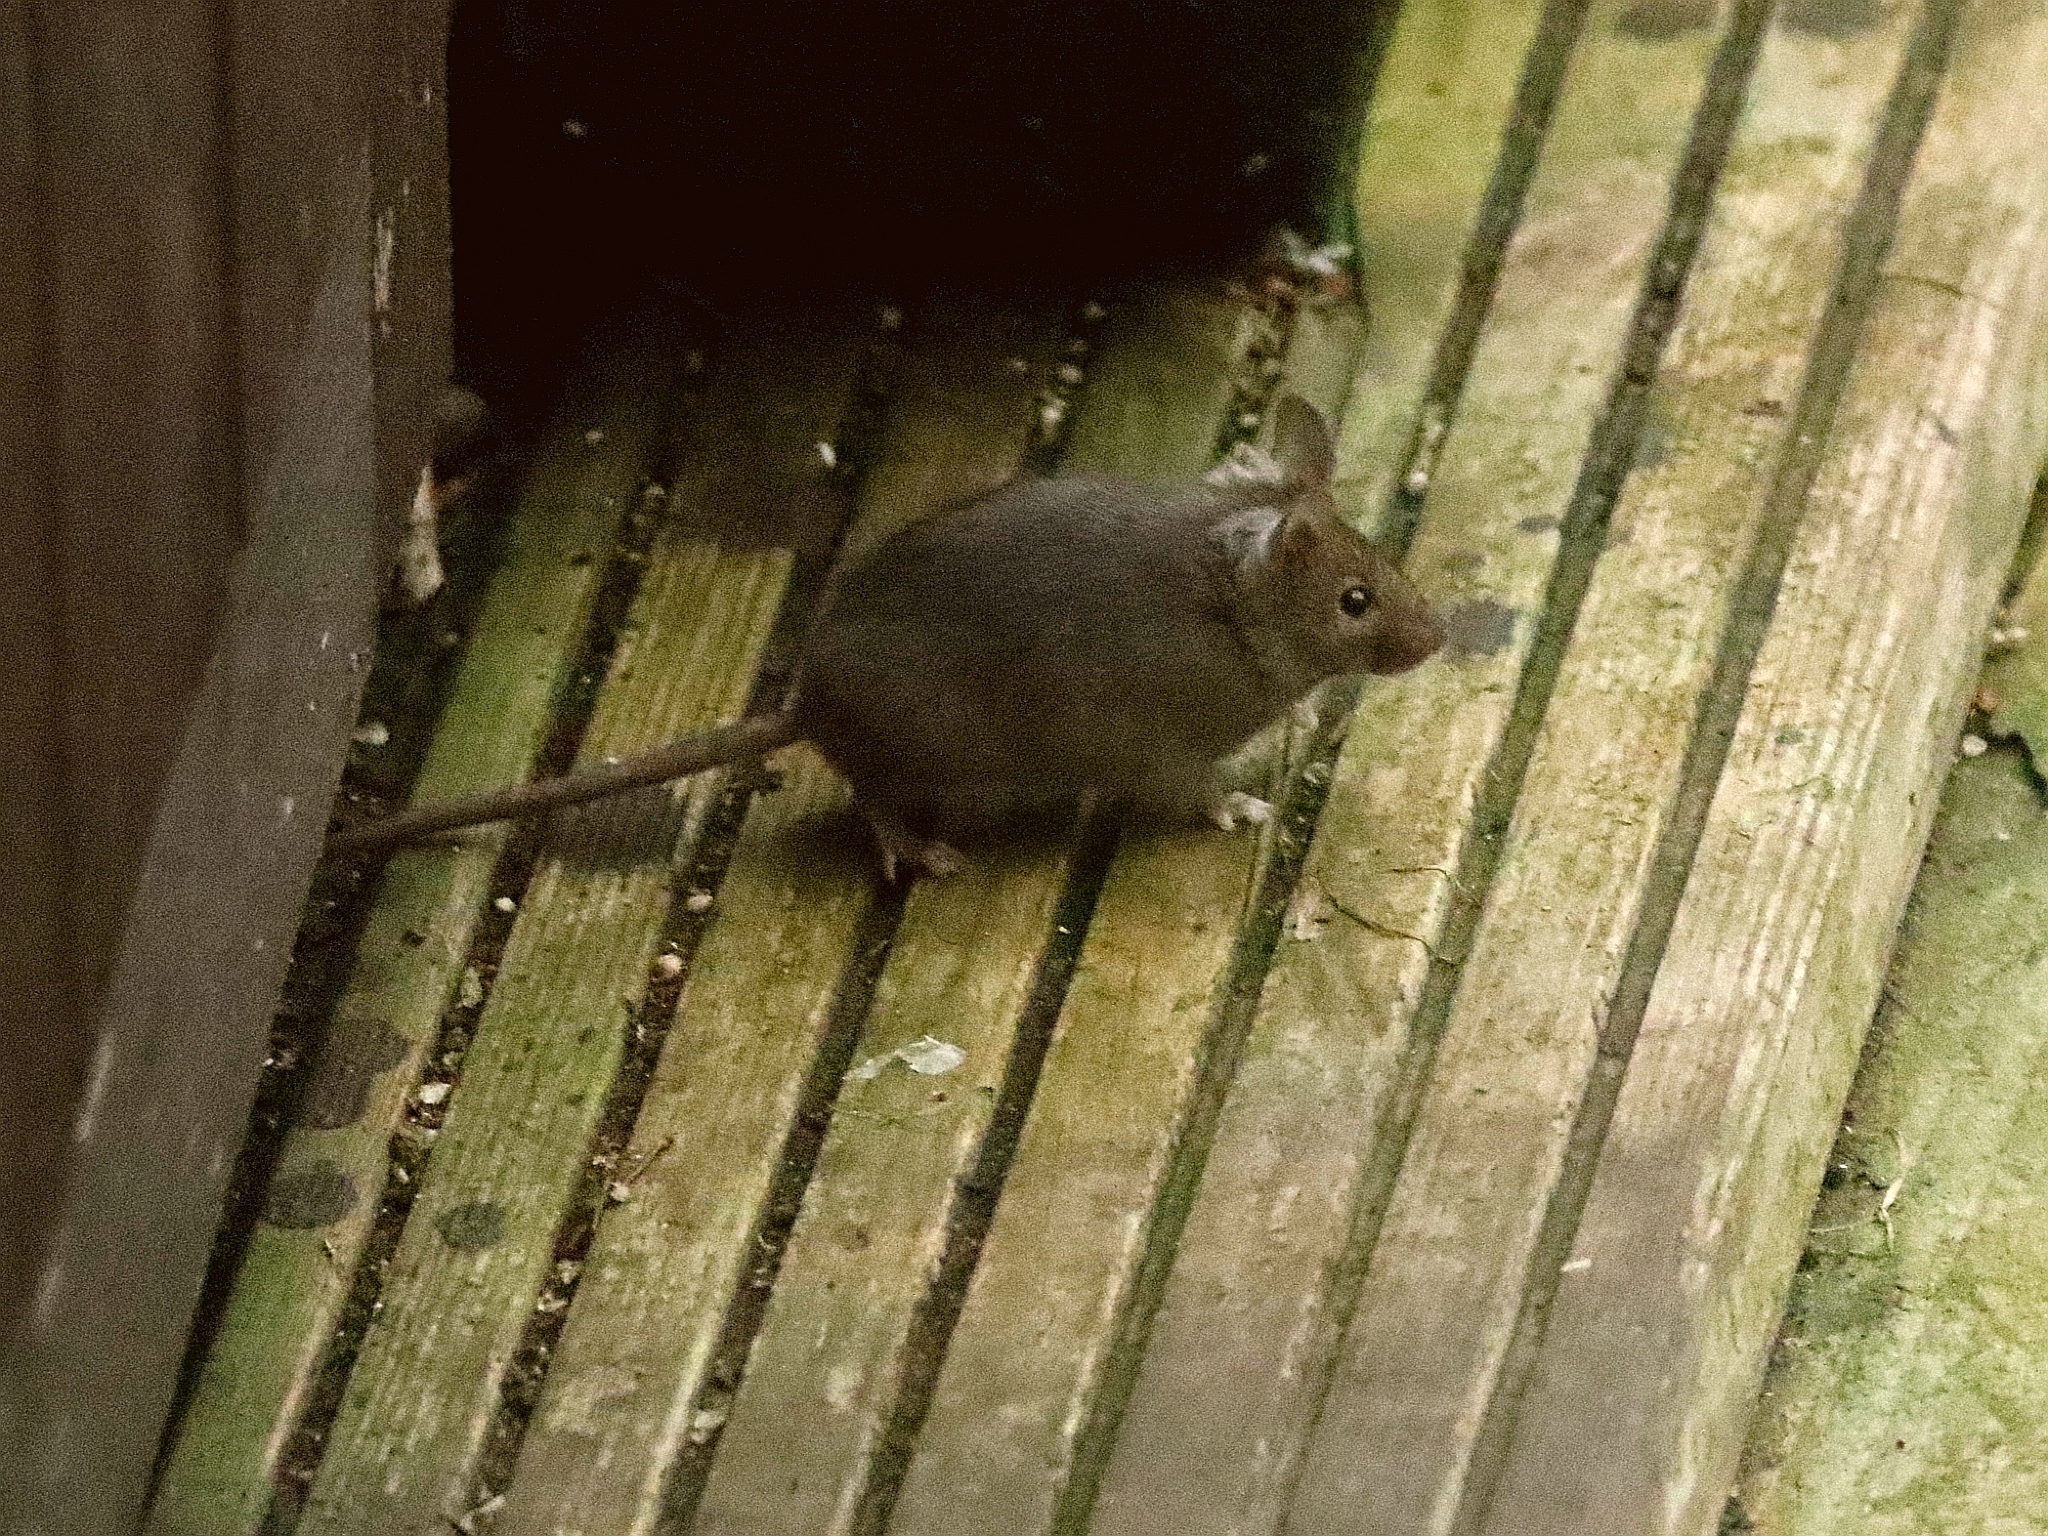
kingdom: Animalia
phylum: Chordata
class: Mammalia
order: Rodentia
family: Muridae
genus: Mus
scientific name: Mus musculus
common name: House mouse
